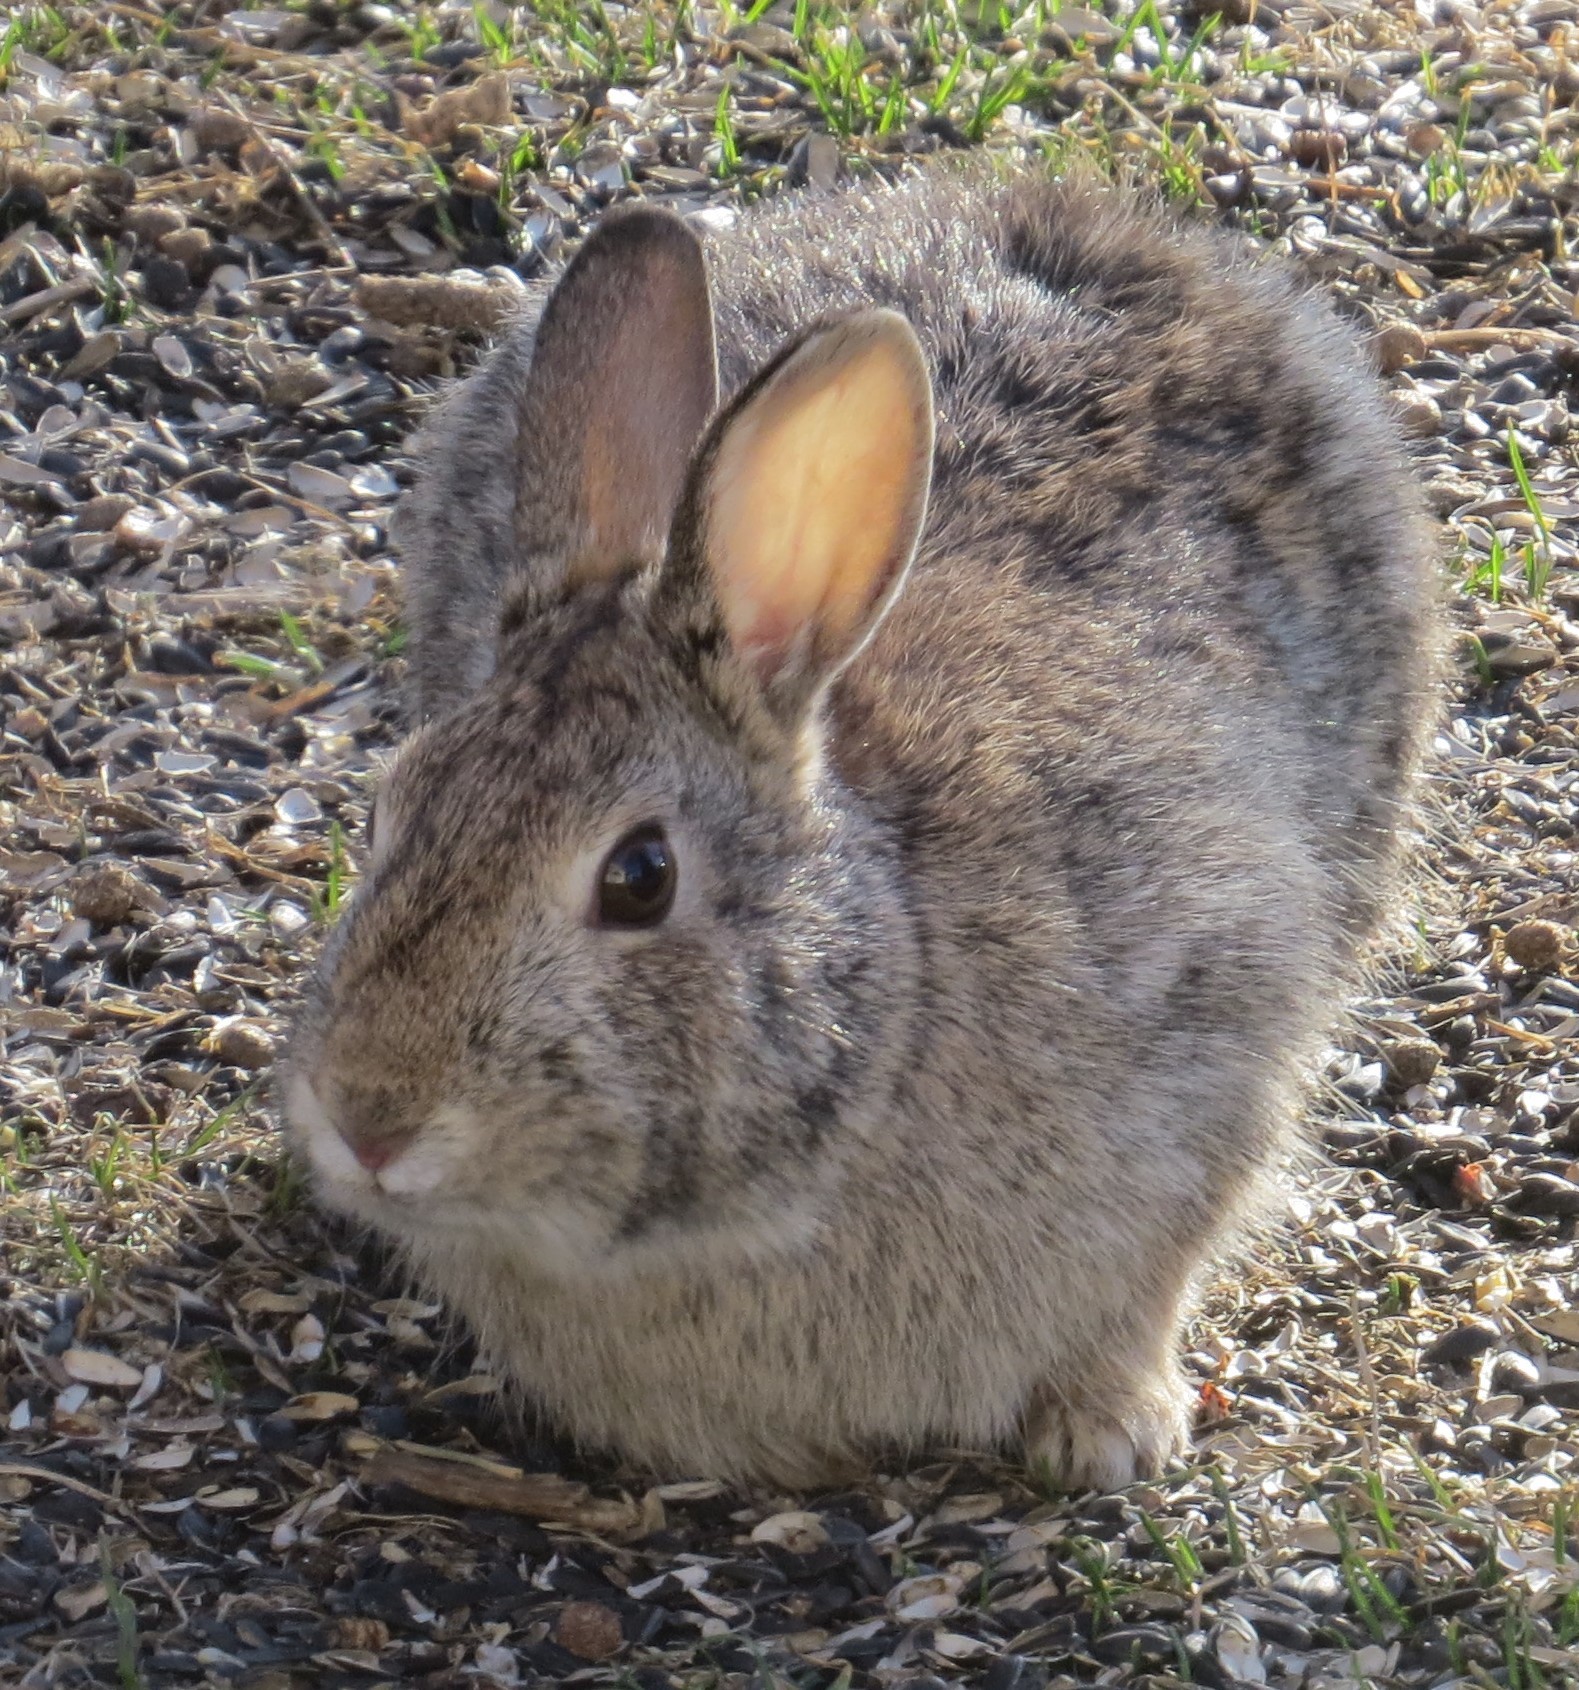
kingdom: Animalia
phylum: Chordata
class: Mammalia
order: Lagomorpha
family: Leporidae
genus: Sylvilagus
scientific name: Sylvilagus floridanus
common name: Eastern cottontail
